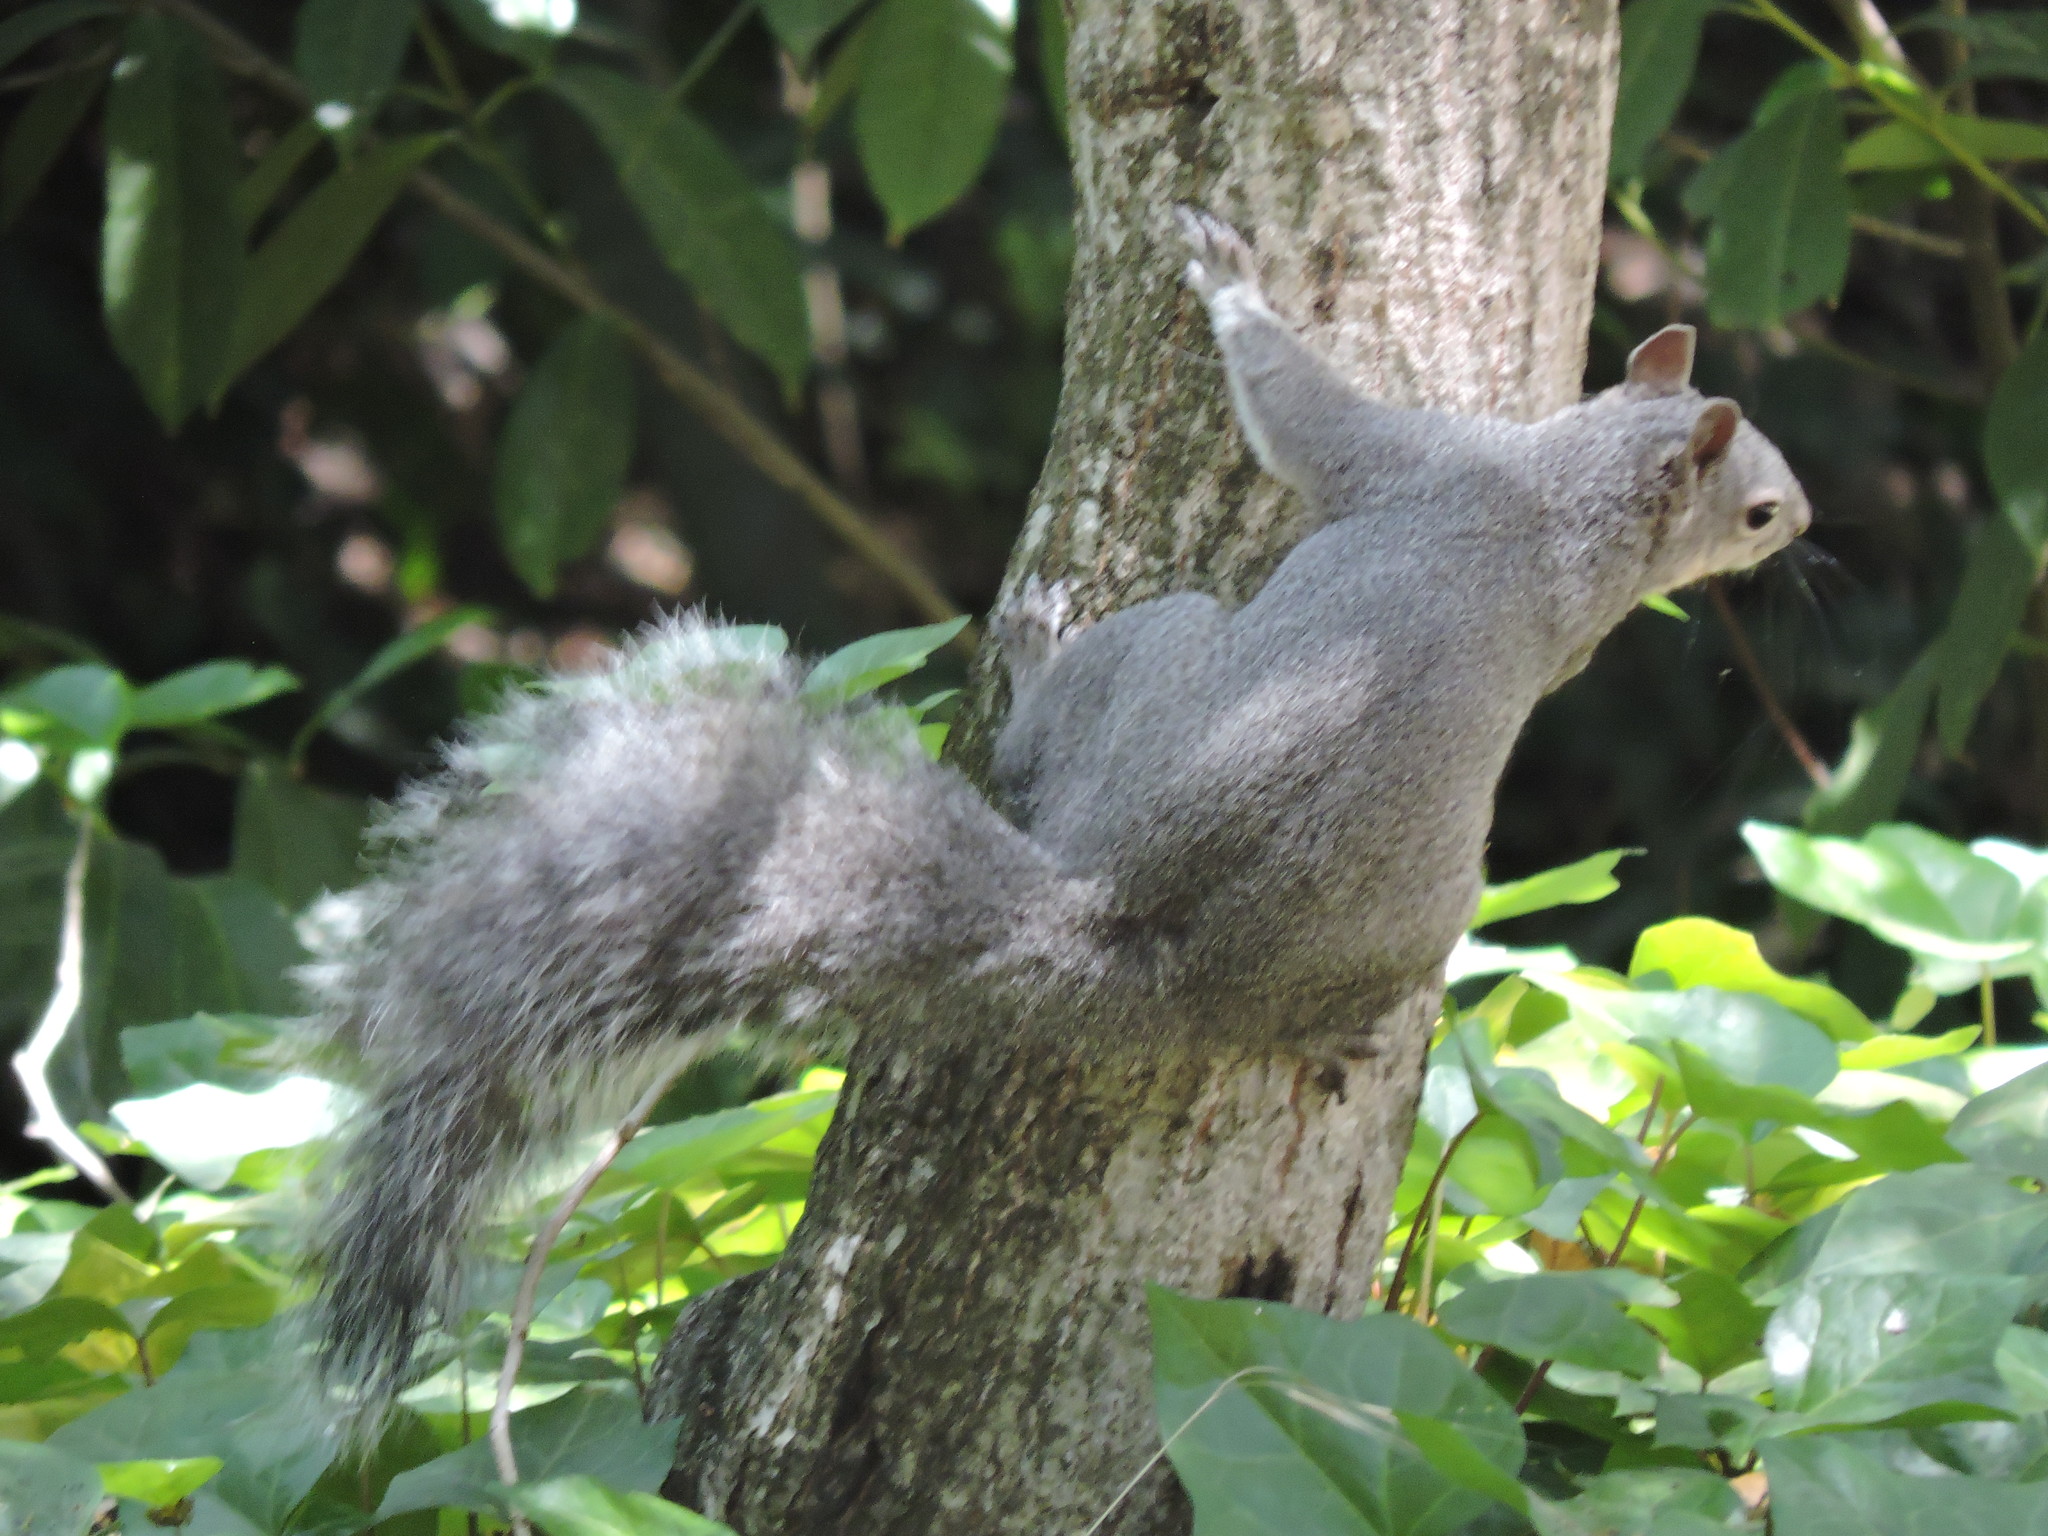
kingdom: Animalia
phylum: Chordata
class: Mammalia
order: Rodentia
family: Sciuridae
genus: Sciurus
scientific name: Sciurus griseus
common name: Western gray squirrel
